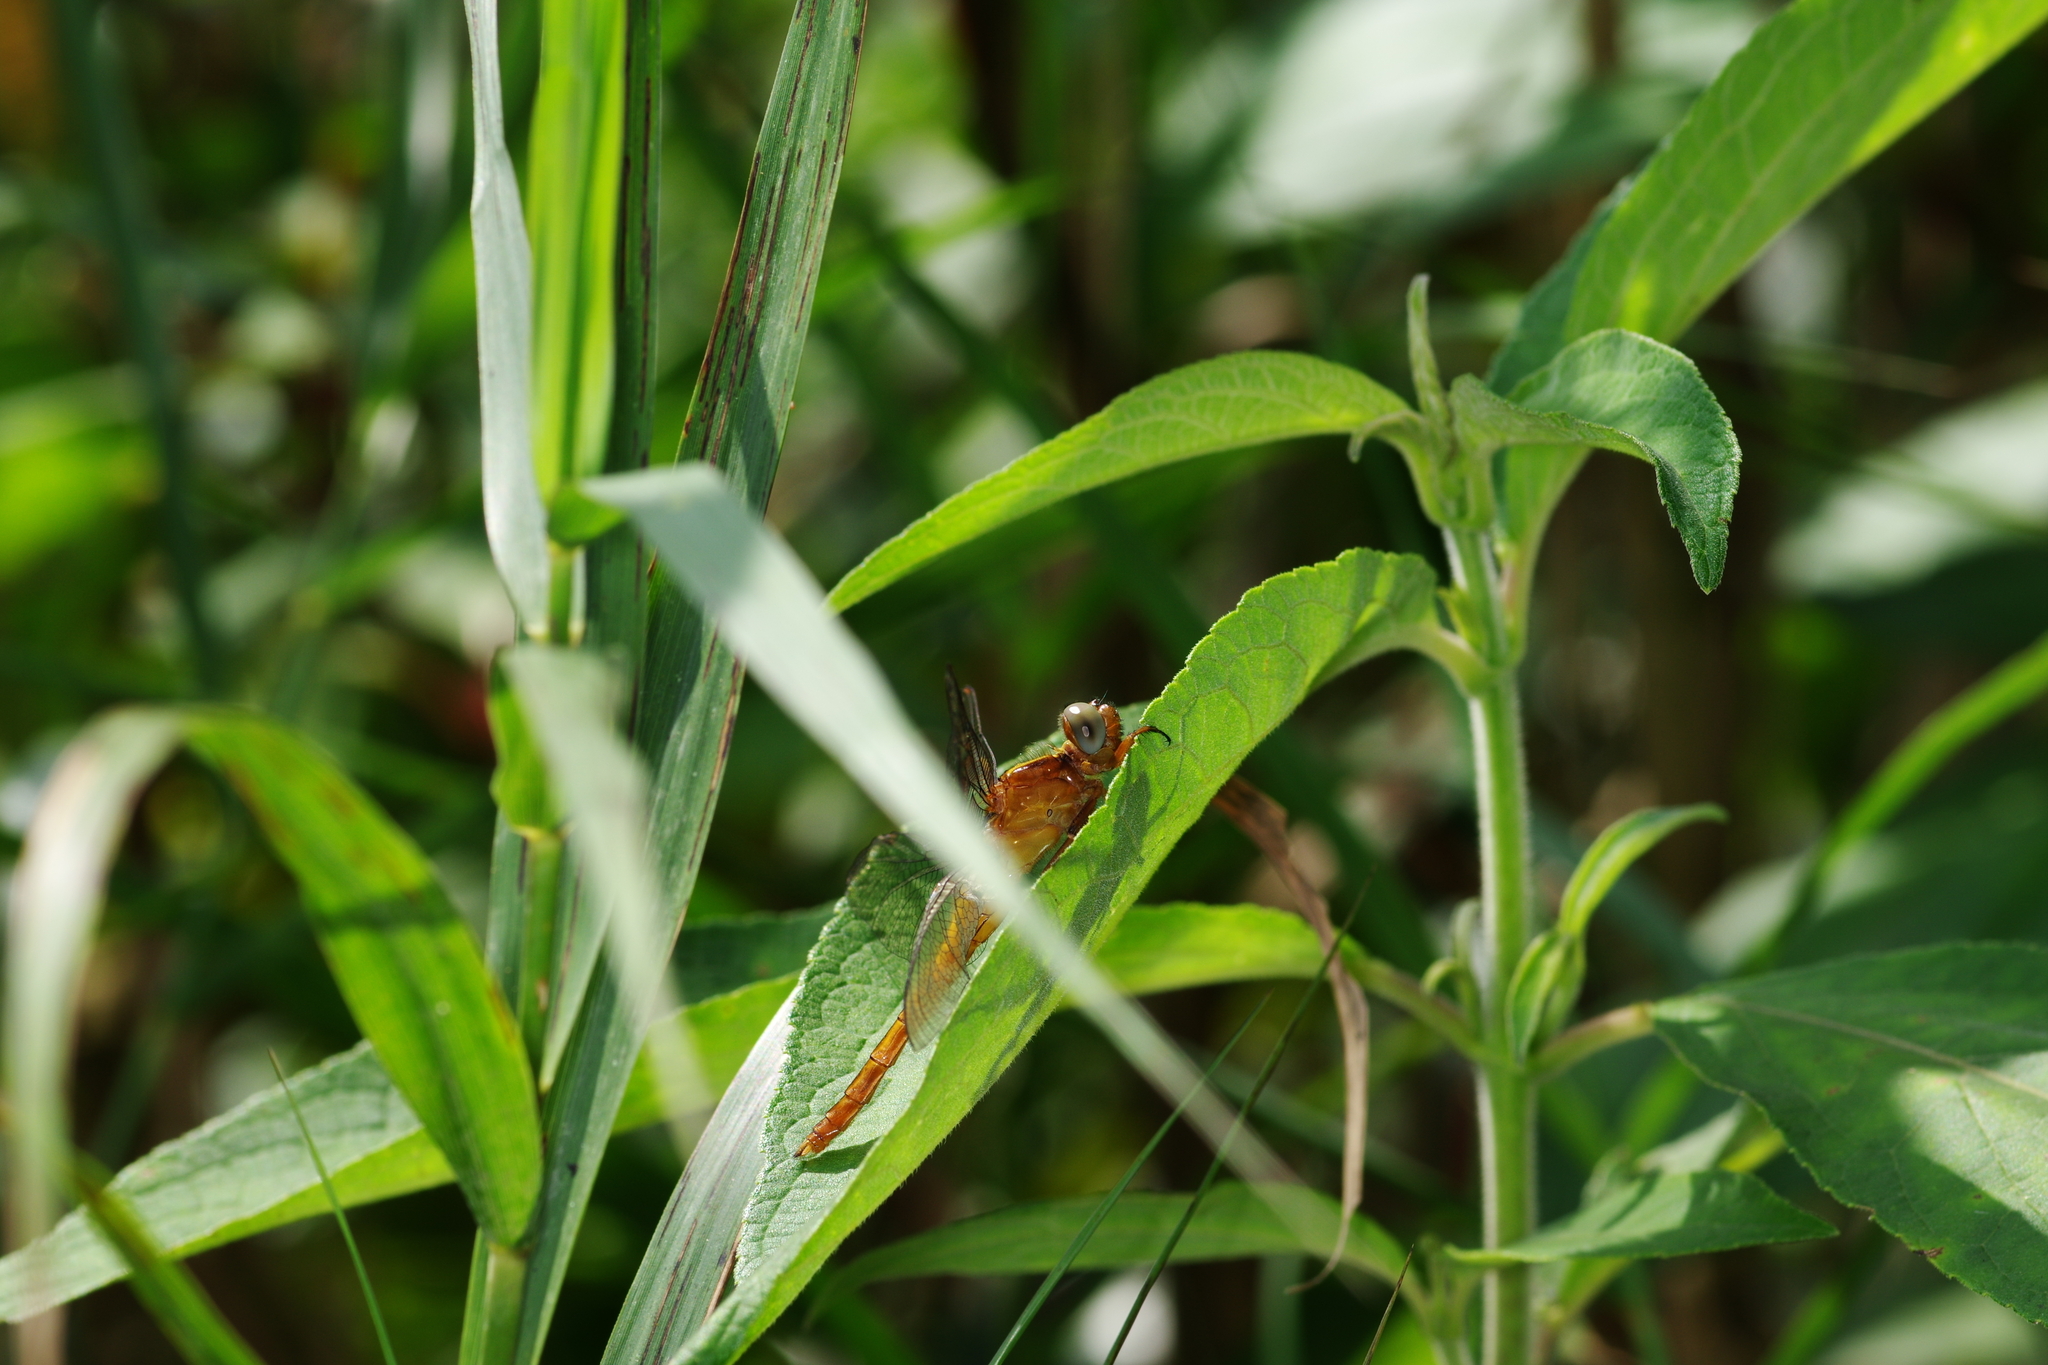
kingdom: Animalia
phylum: Arthropoda
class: Insecta
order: Odonata
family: Libellulidae
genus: Rhodothemis
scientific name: Rhodothemis rufa
